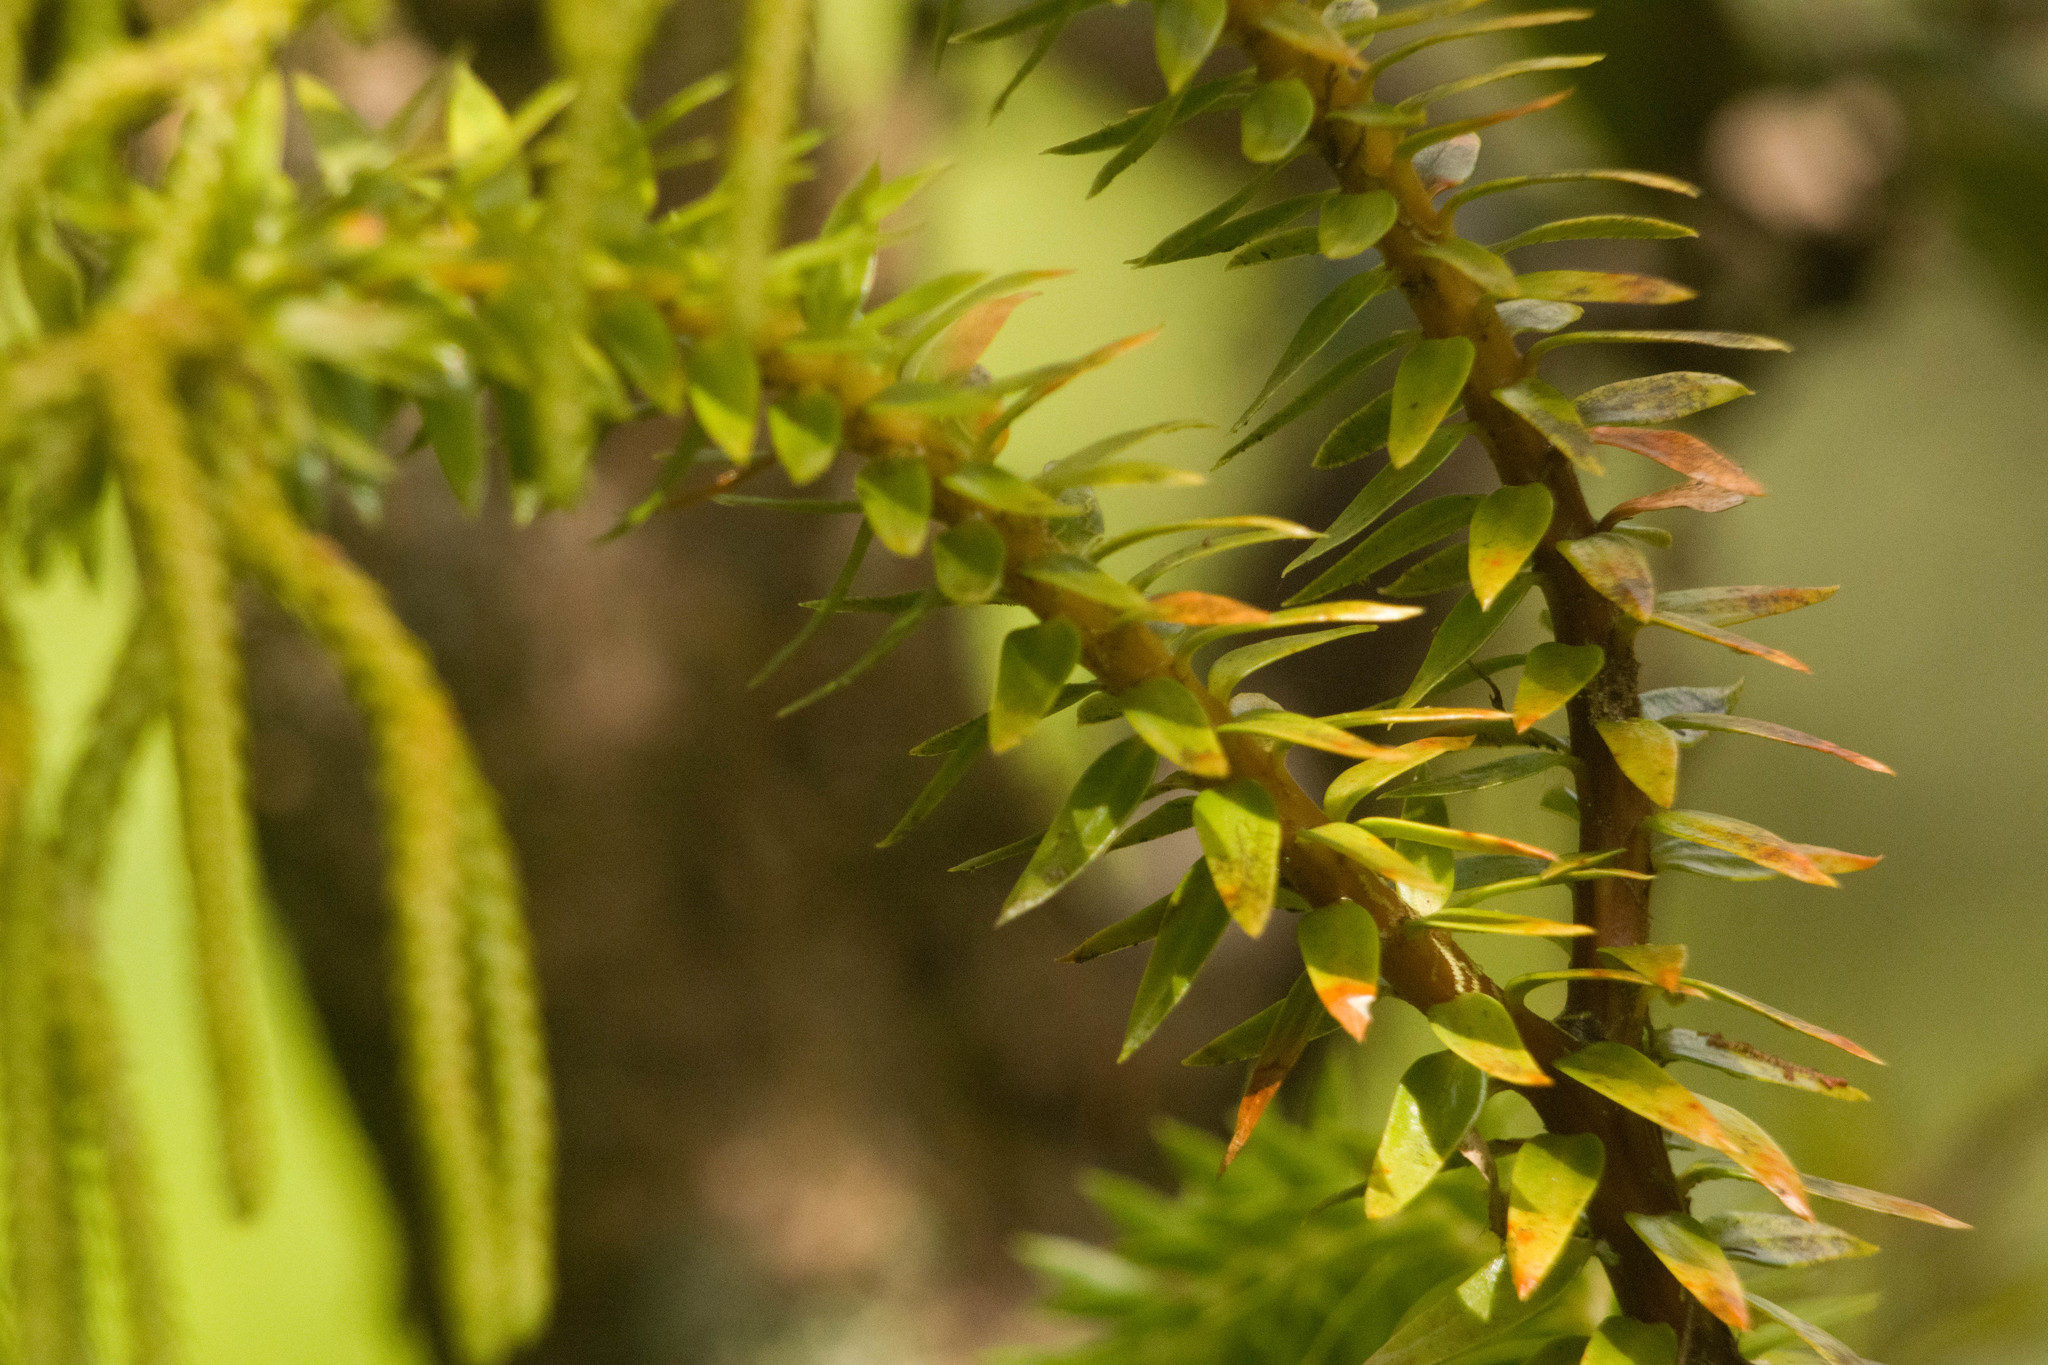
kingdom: Plantae
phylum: Tracheophyta
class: Lycopodiopsida
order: Lycopodiales
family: Lycopodiaceae
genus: Phlegmariurus
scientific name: Phlegmariurus phyllanthus
